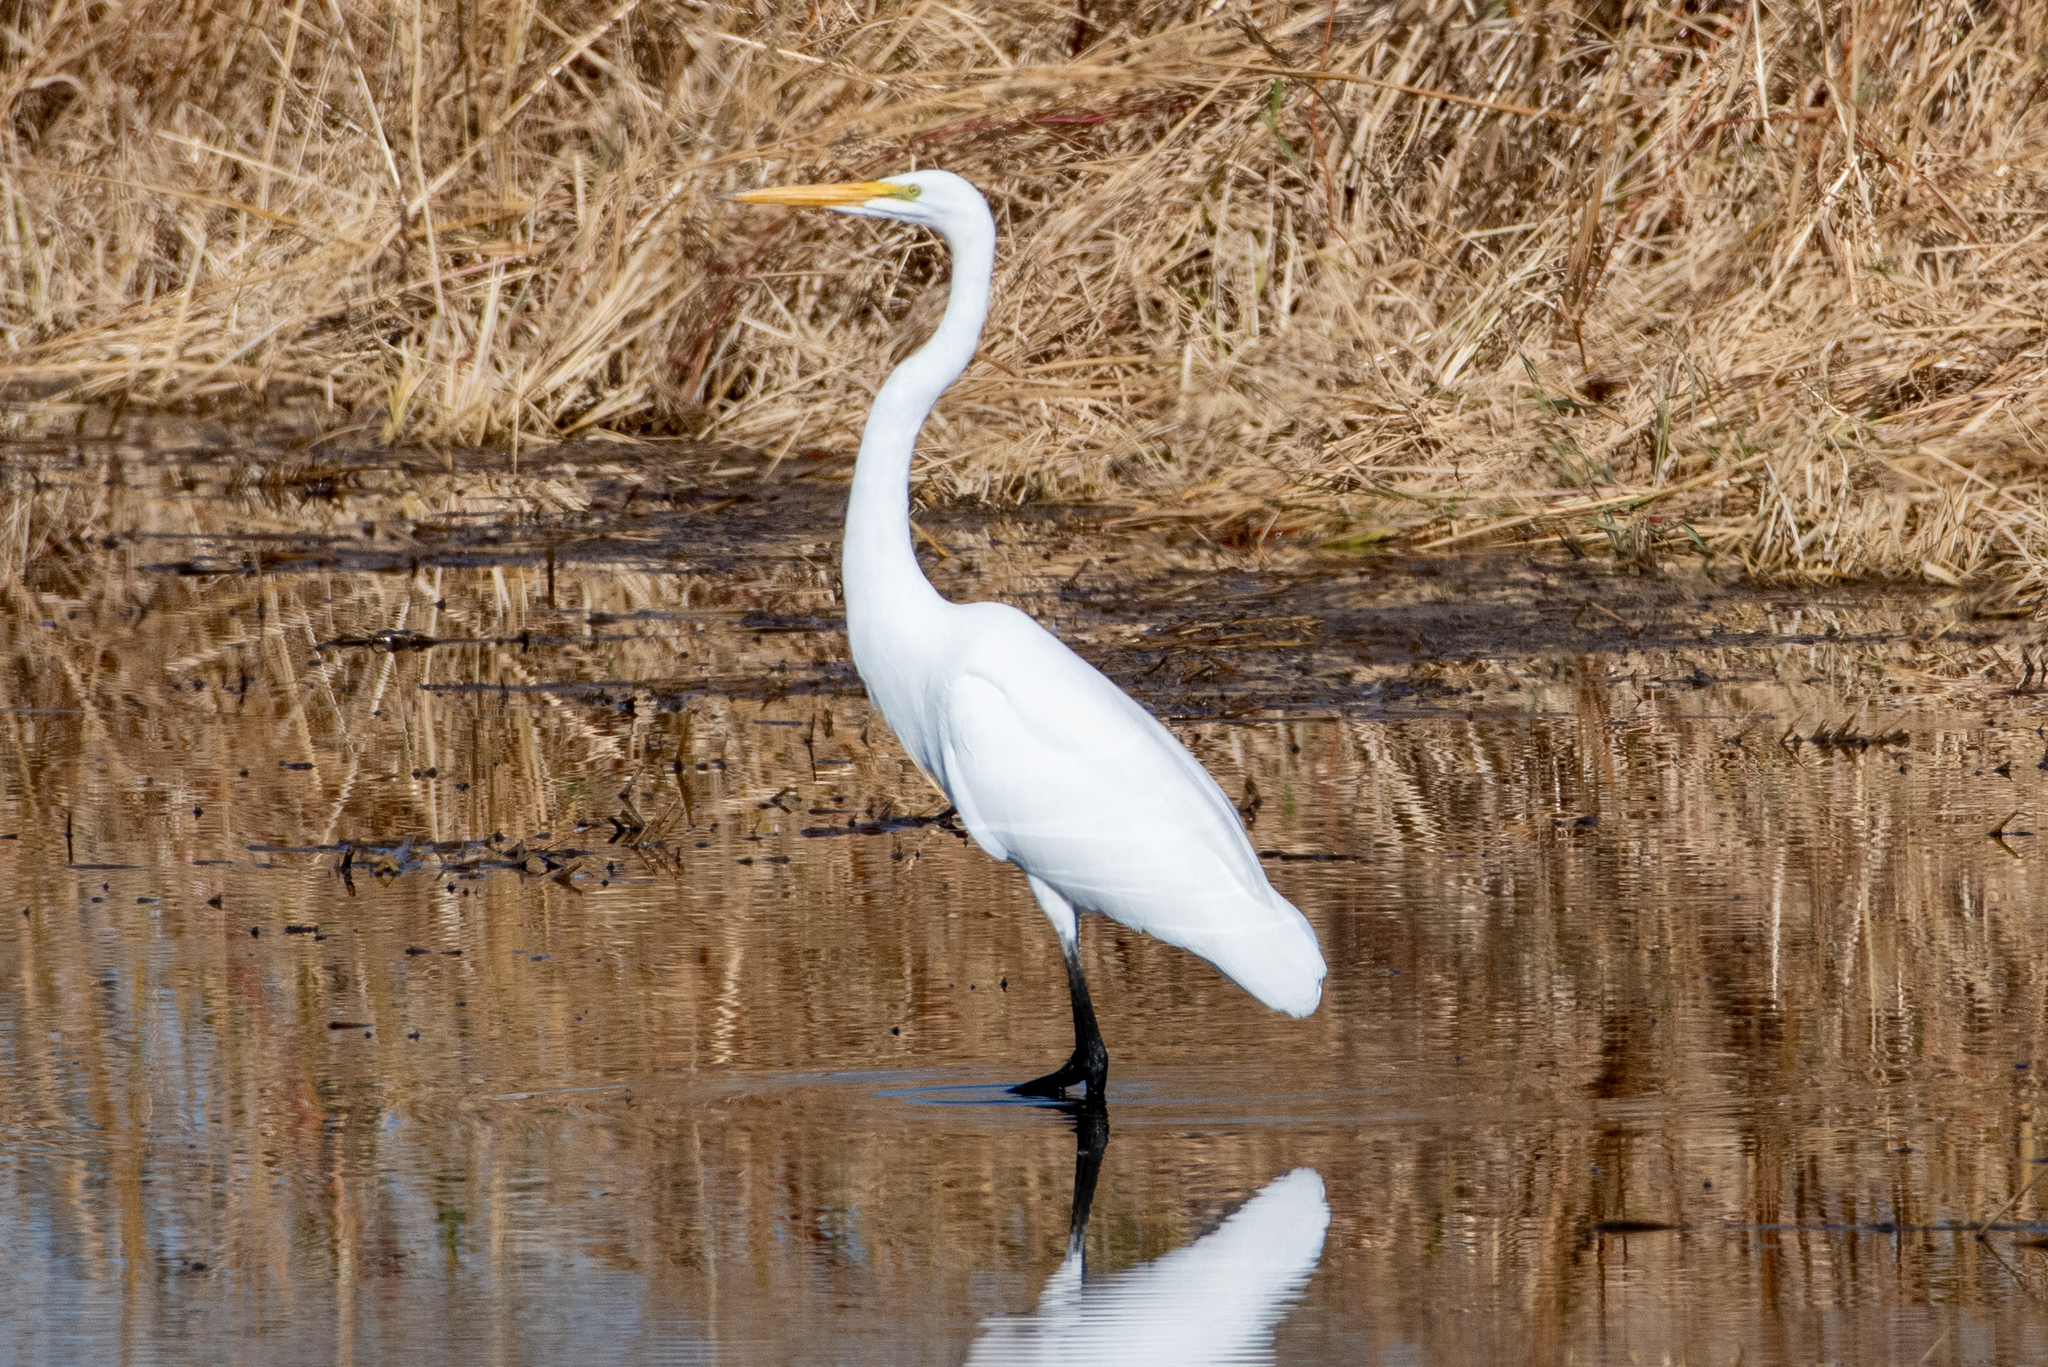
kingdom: Animalia
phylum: Chordata
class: Aves
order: Pelecaniformes
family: Ardeidae
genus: Ardea
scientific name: Ardea alba
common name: Great egret
